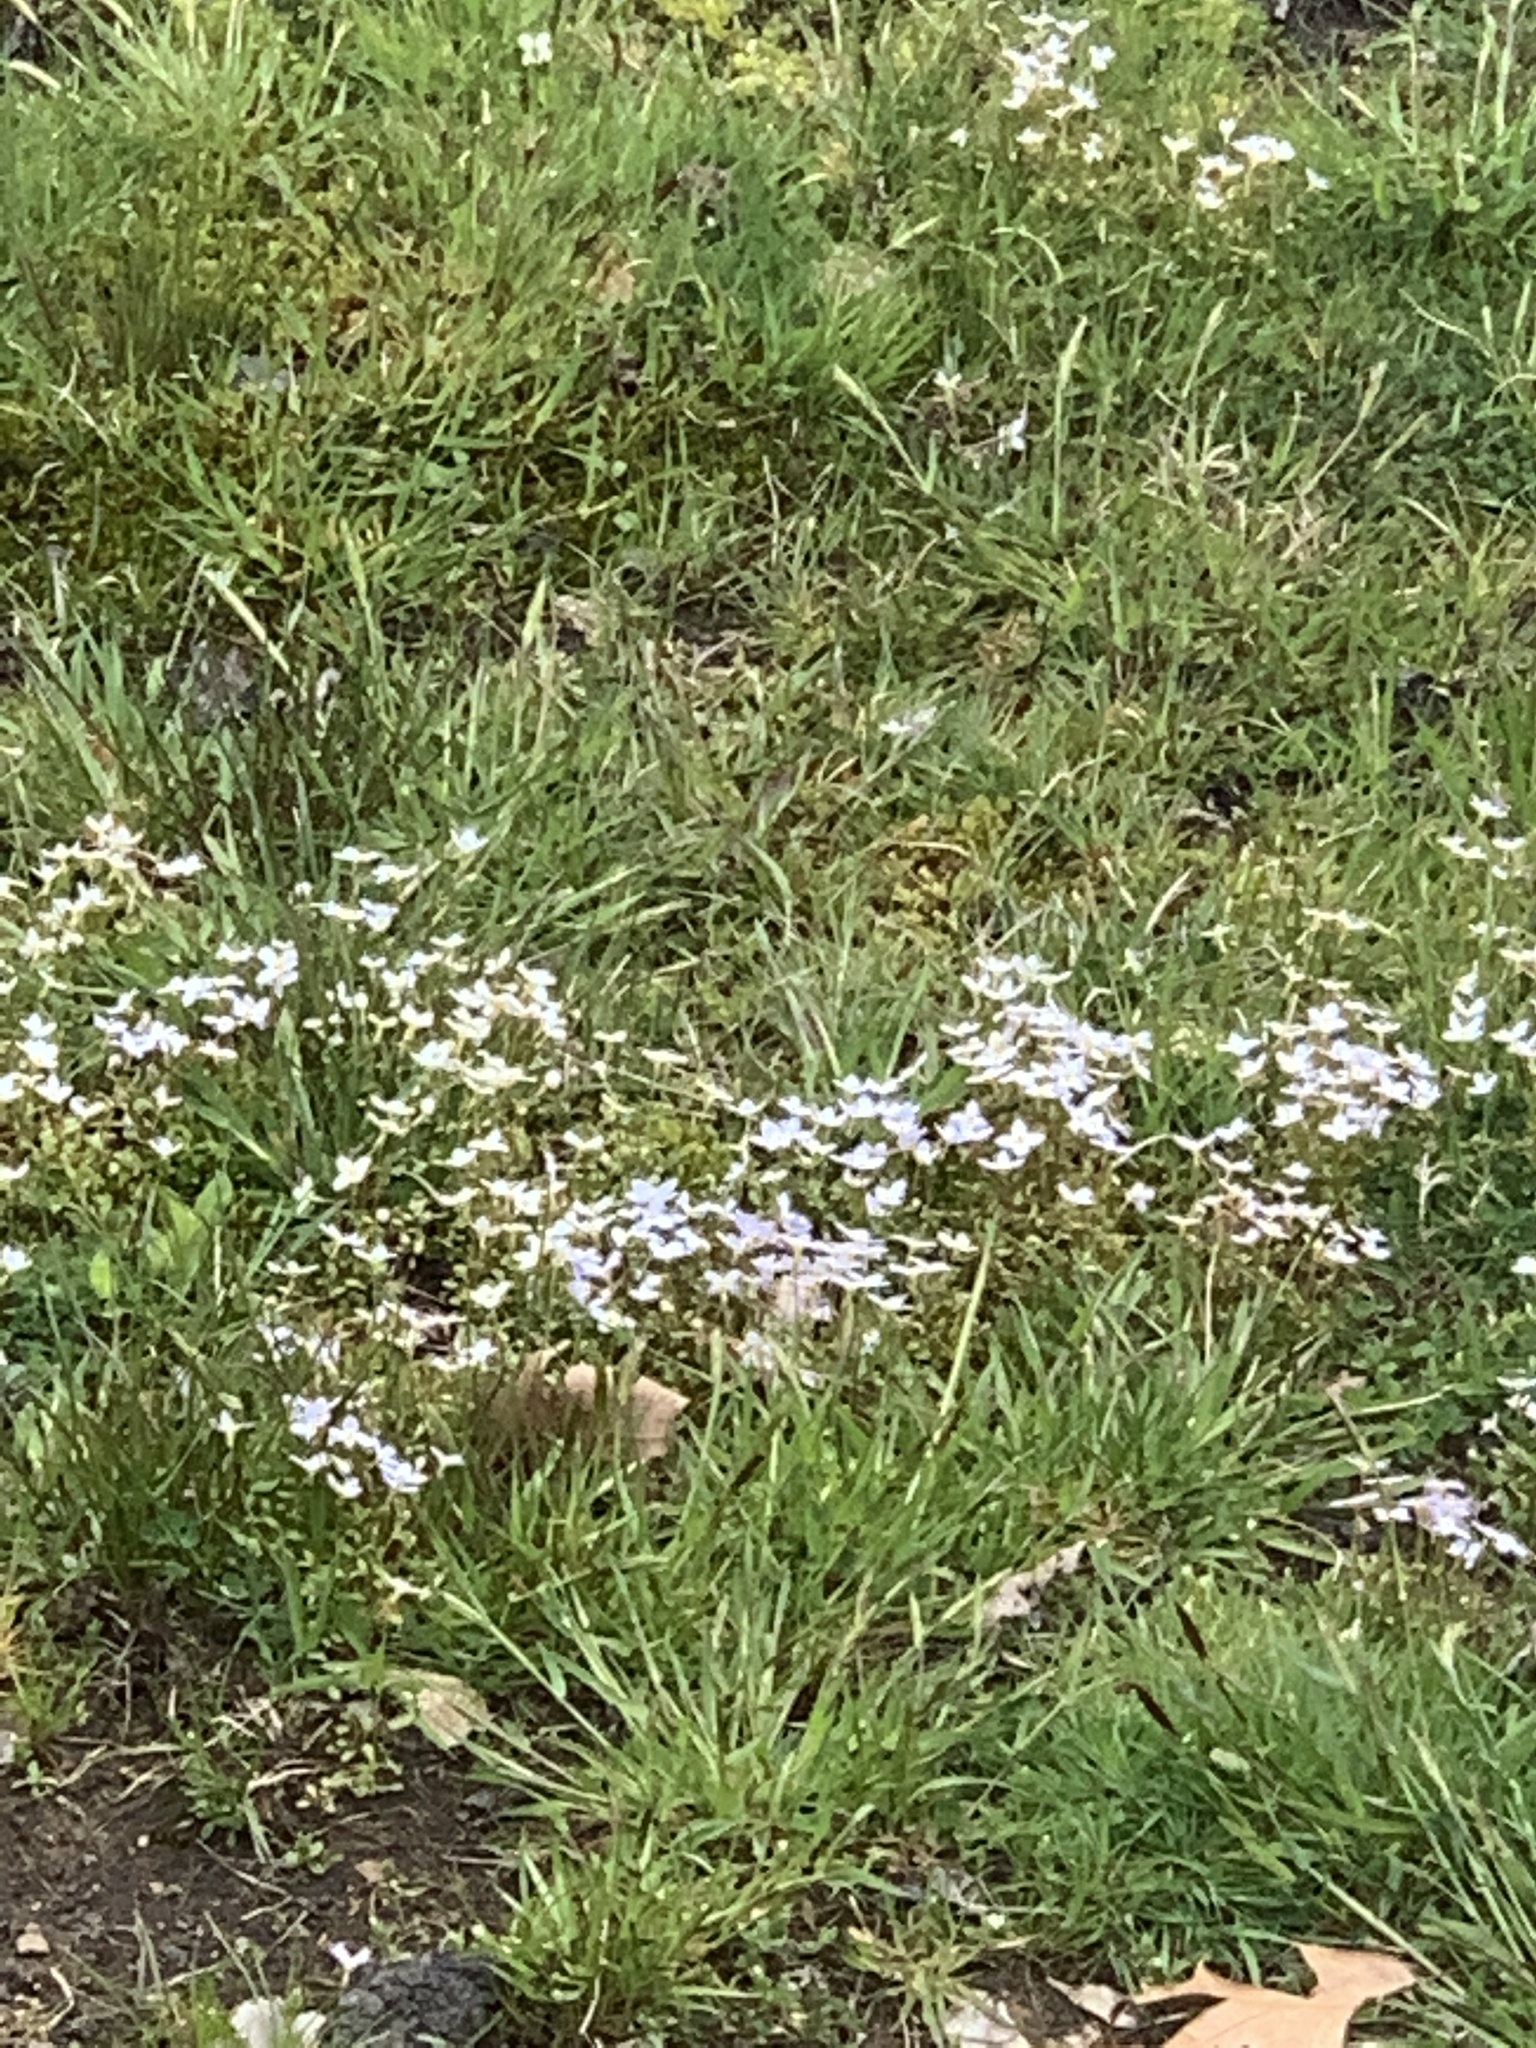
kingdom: Plantae
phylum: Tracheophyta
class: Magnoliopsida
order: Gentianales
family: Rubiaceae
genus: Houstonia
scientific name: Houstonia caerulea
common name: Bluets
